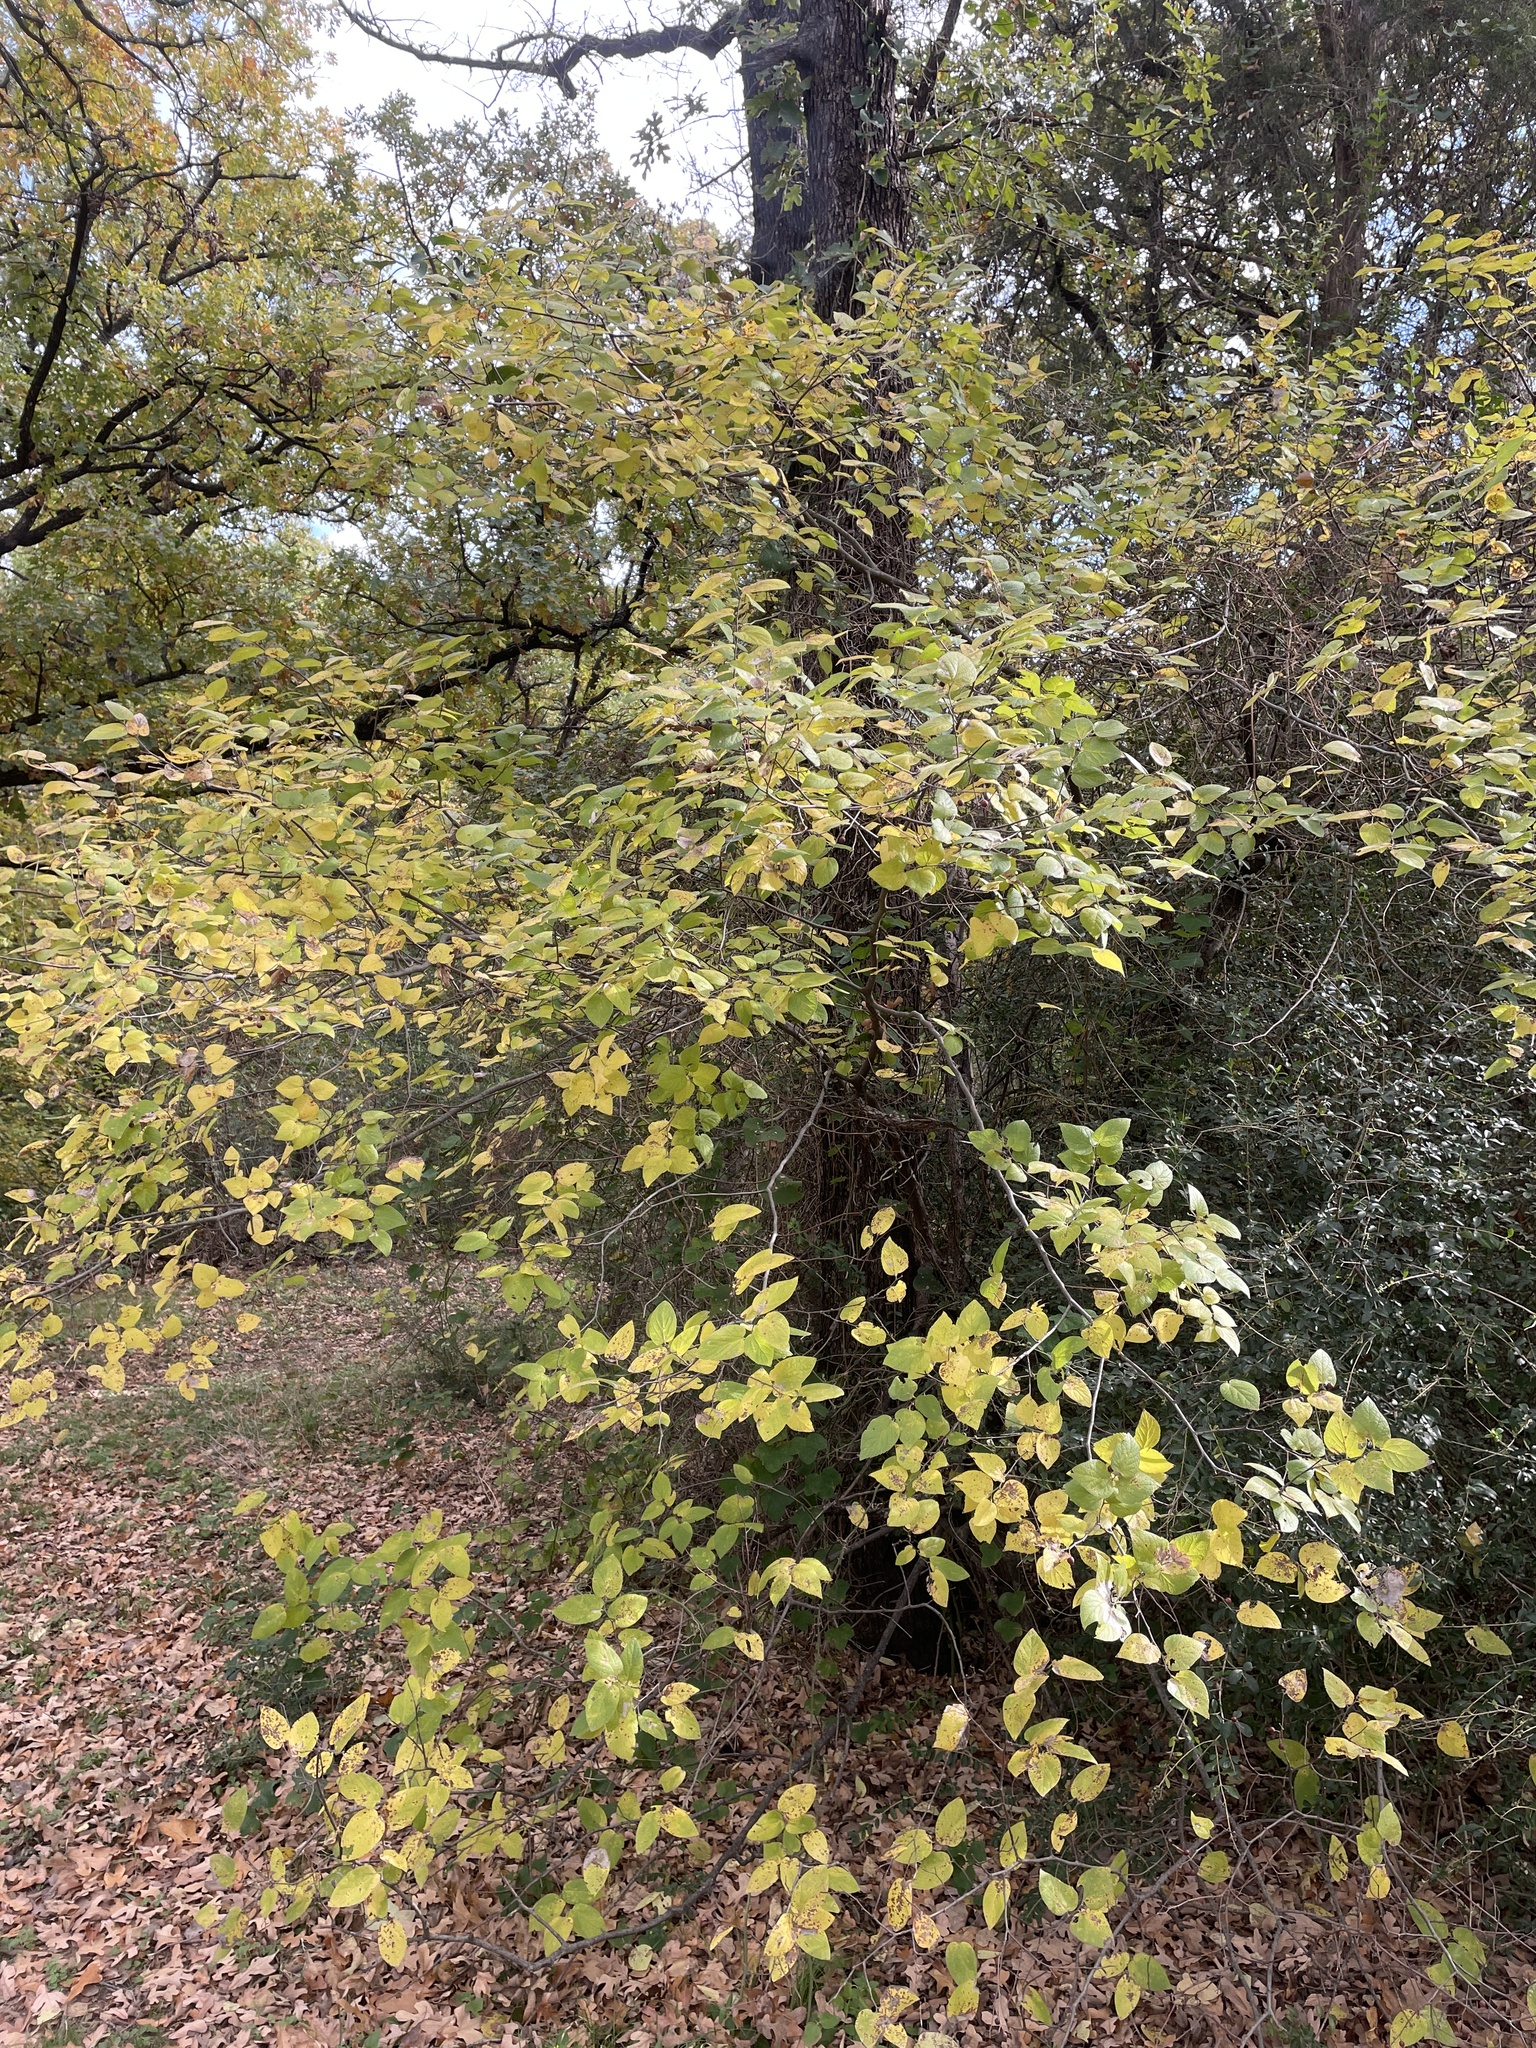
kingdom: Plantae
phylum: Tracheophyta
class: Magnoliopsida
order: Rosales
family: Cannabaceae
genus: Celtis
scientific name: Celtis reticulata
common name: Netleaf hackberry
